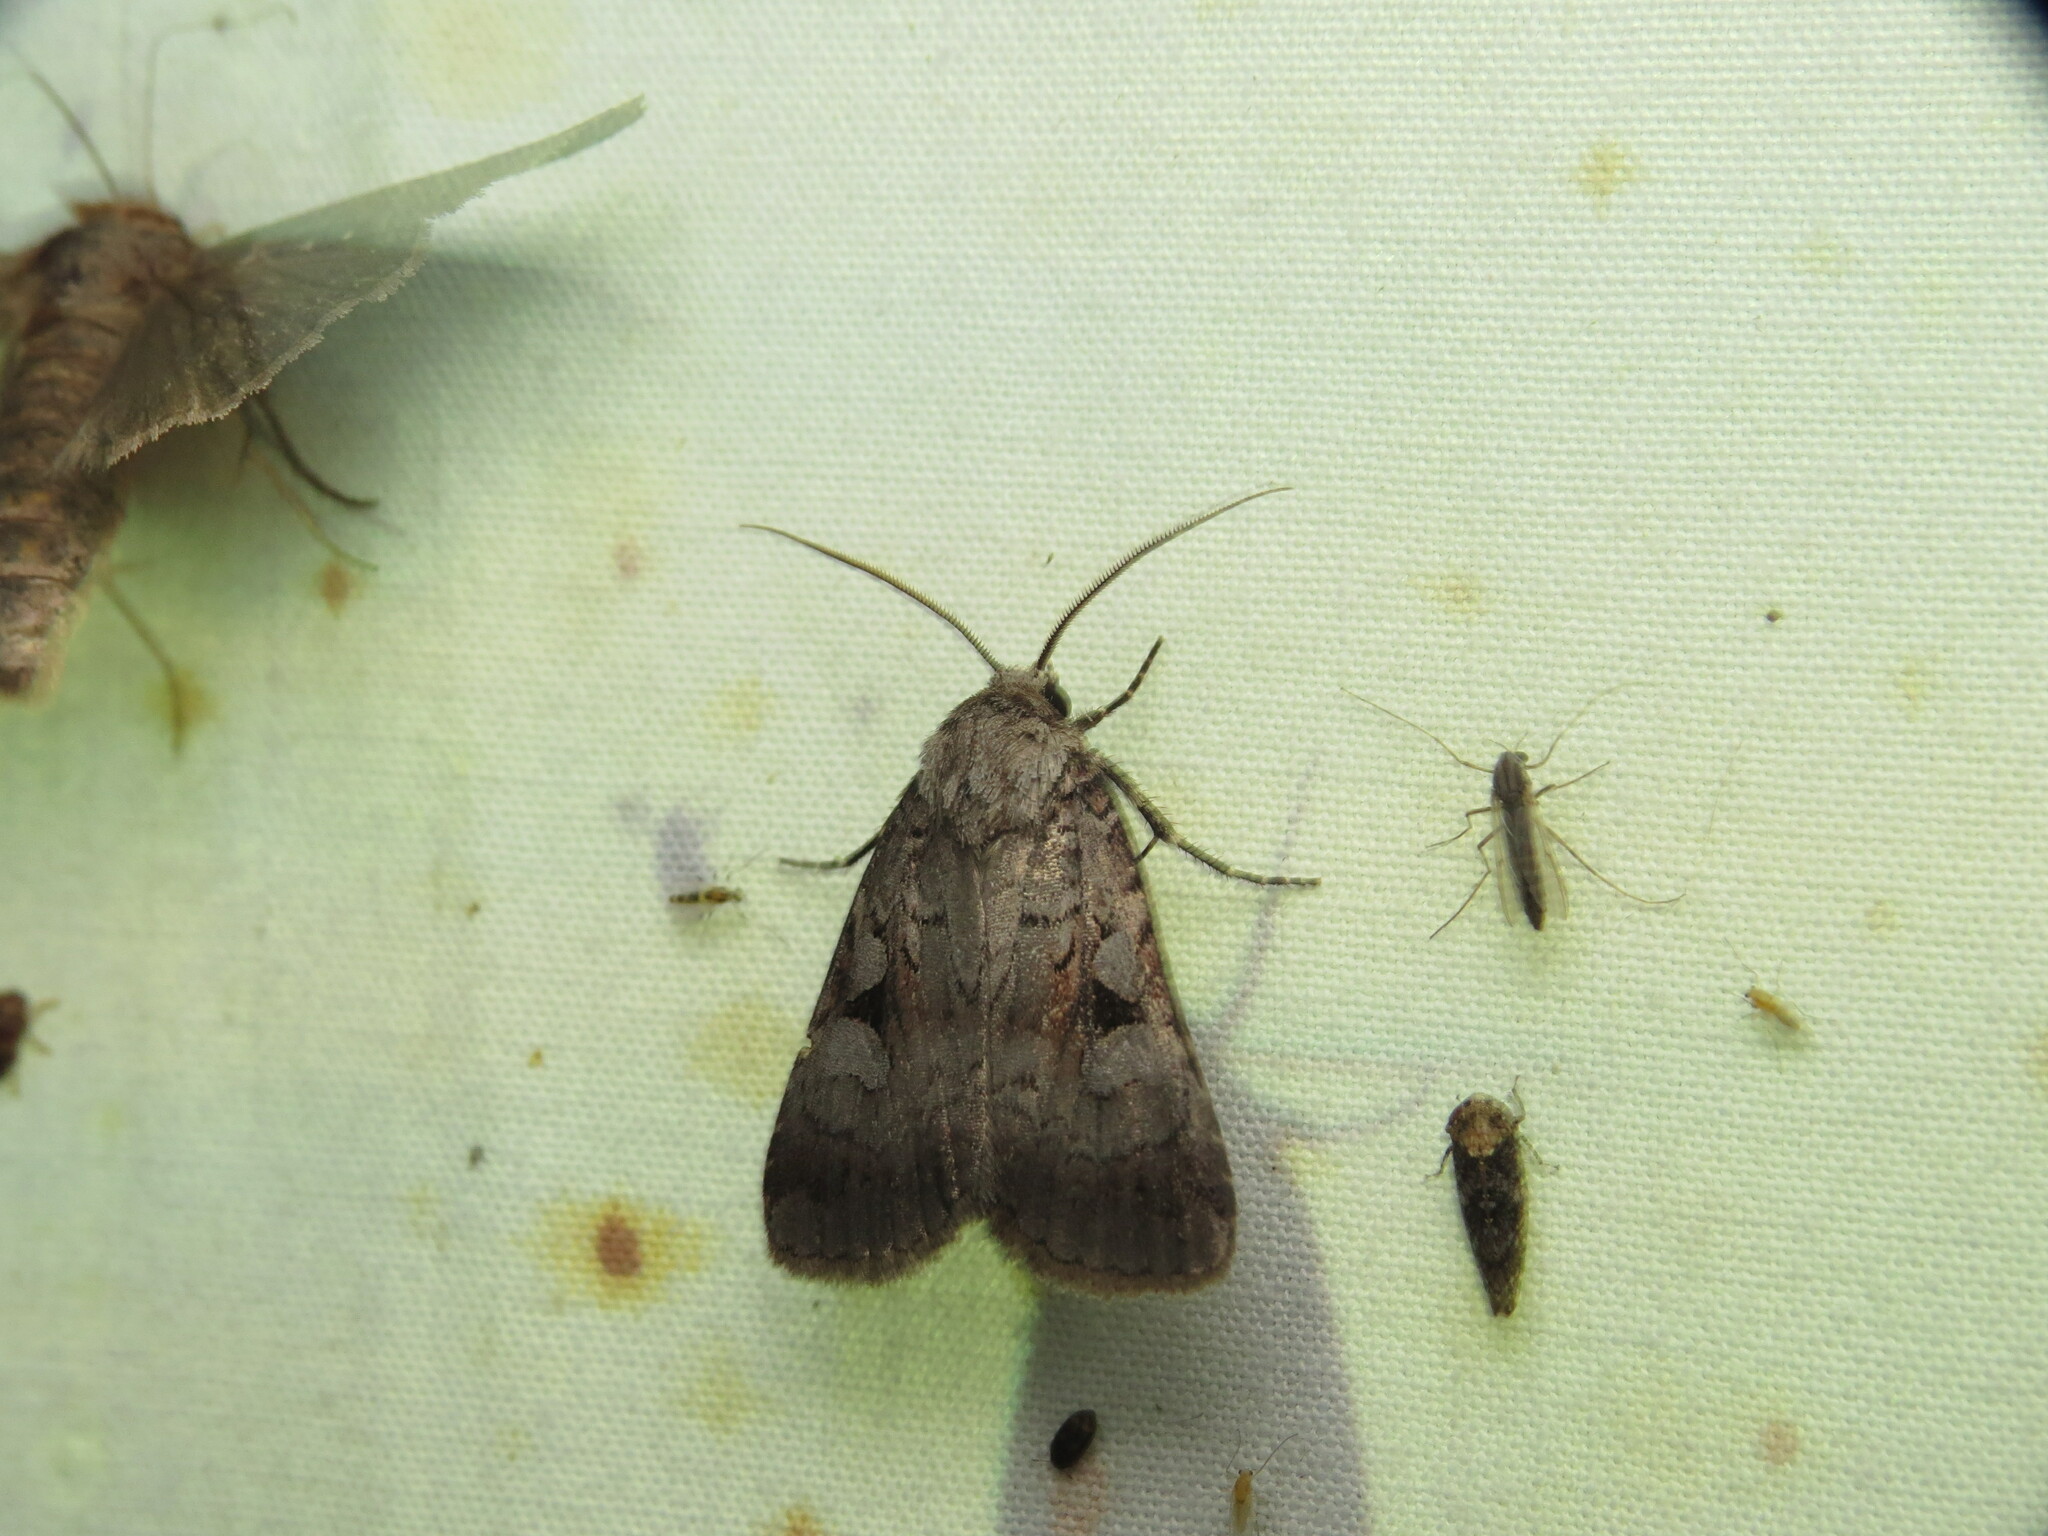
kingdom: Animalia
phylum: Arthropoda
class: Insecta
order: Lepidoptera
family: Noctuidae
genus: Feltia
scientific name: Feltia geniculata
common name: Knee-joint dart
